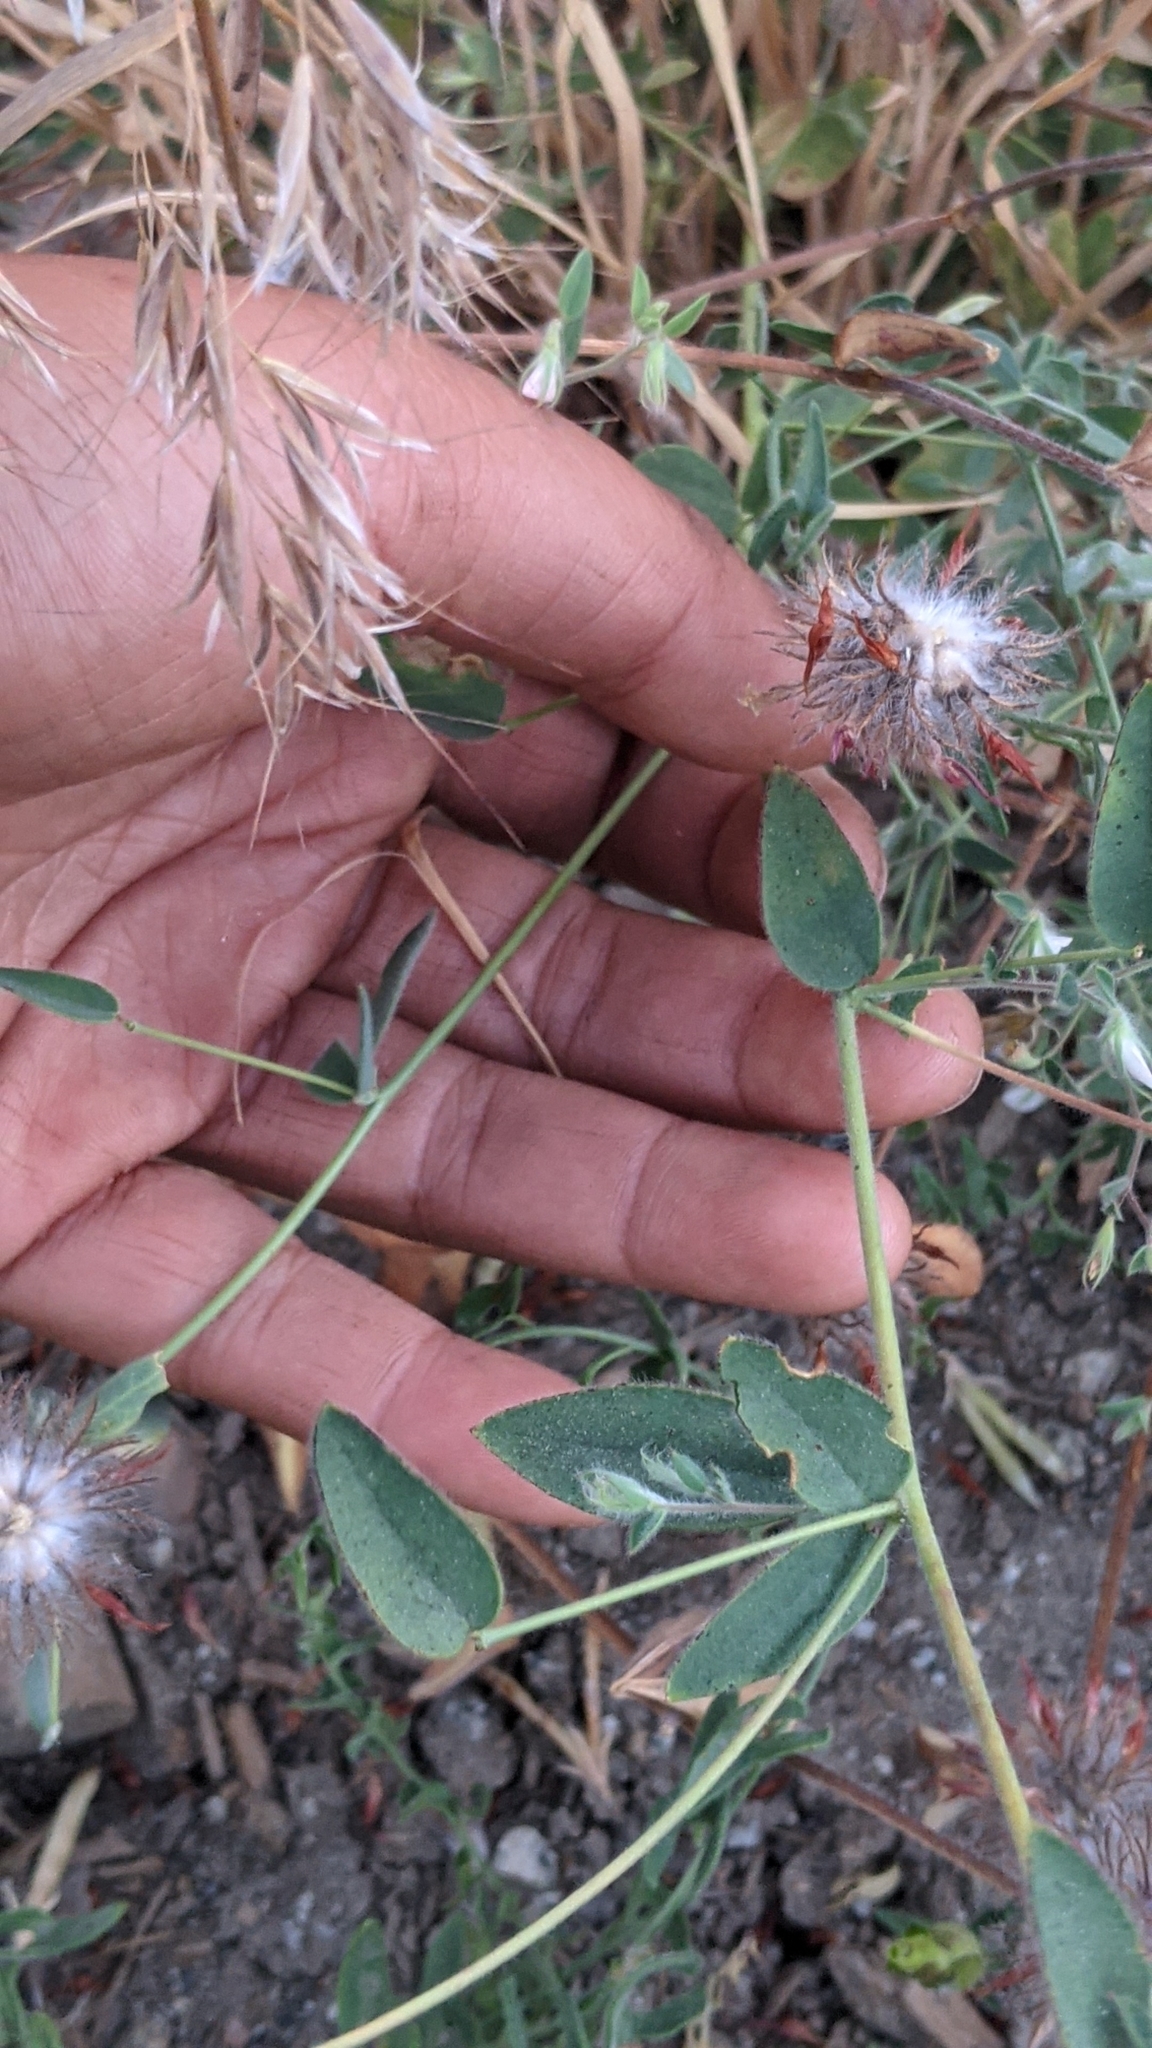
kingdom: Plantae
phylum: Tracheophyta
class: Magnoliopsida
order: Fabales
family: Fabaceae
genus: Trifolium
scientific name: Trifolium hirtum
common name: Rose clover
